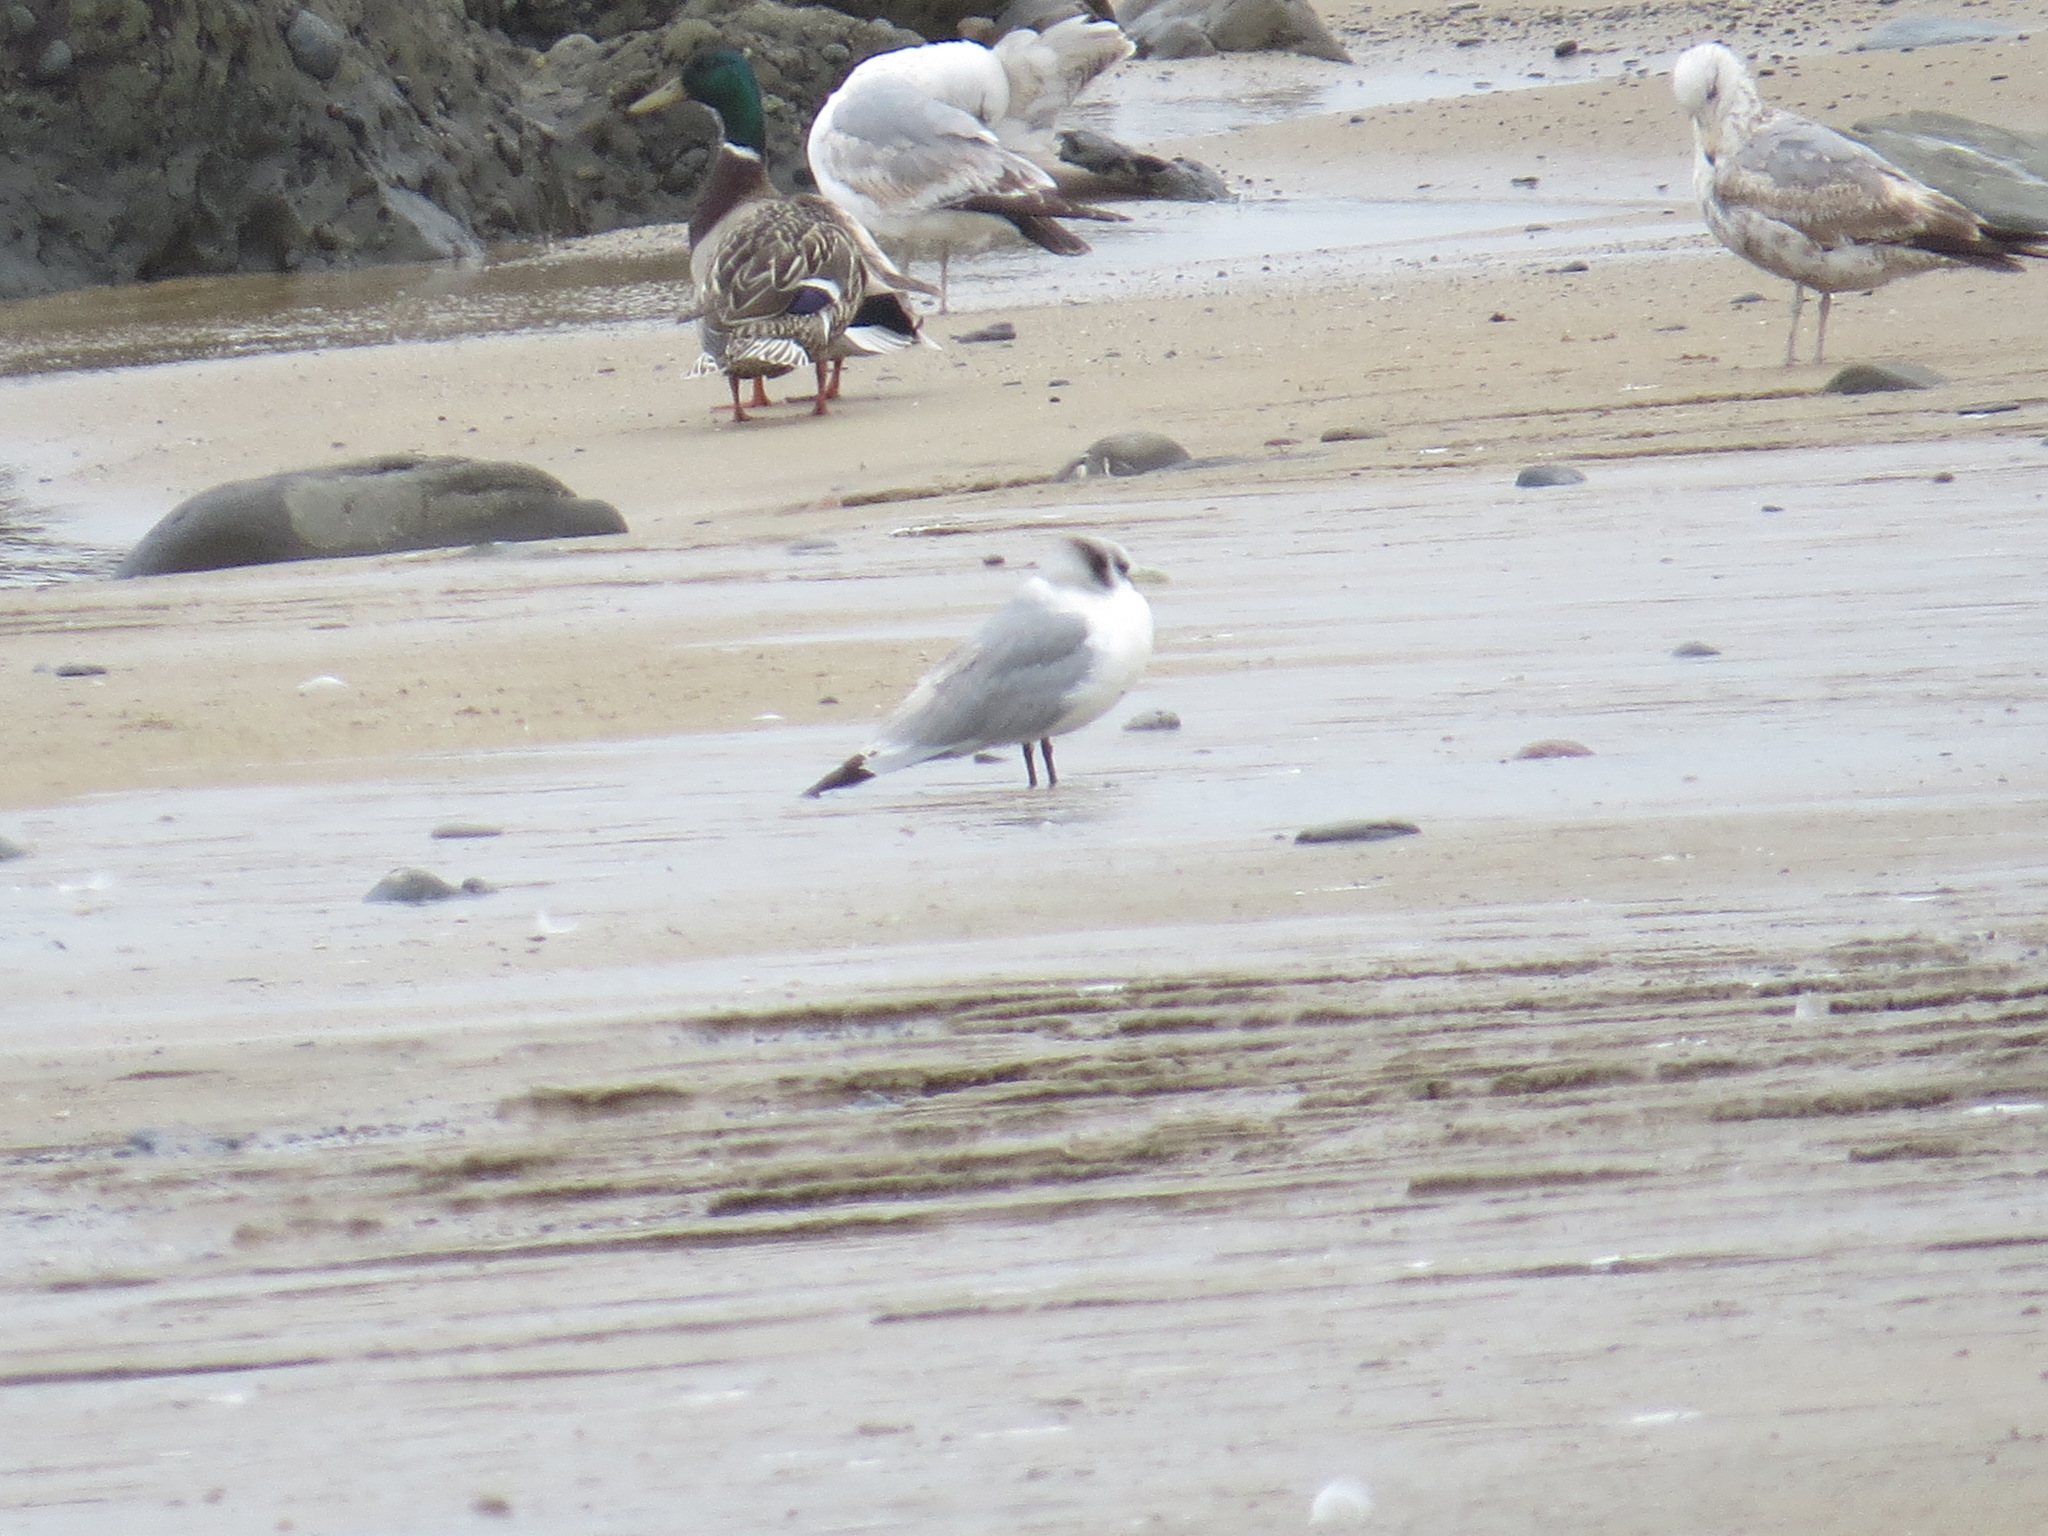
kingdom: Animalia
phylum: Chordata
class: Aves
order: Charadriiformes
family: Laridae
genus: Rissa
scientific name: Rissa tridactyla
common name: Black-legged kittiwake
